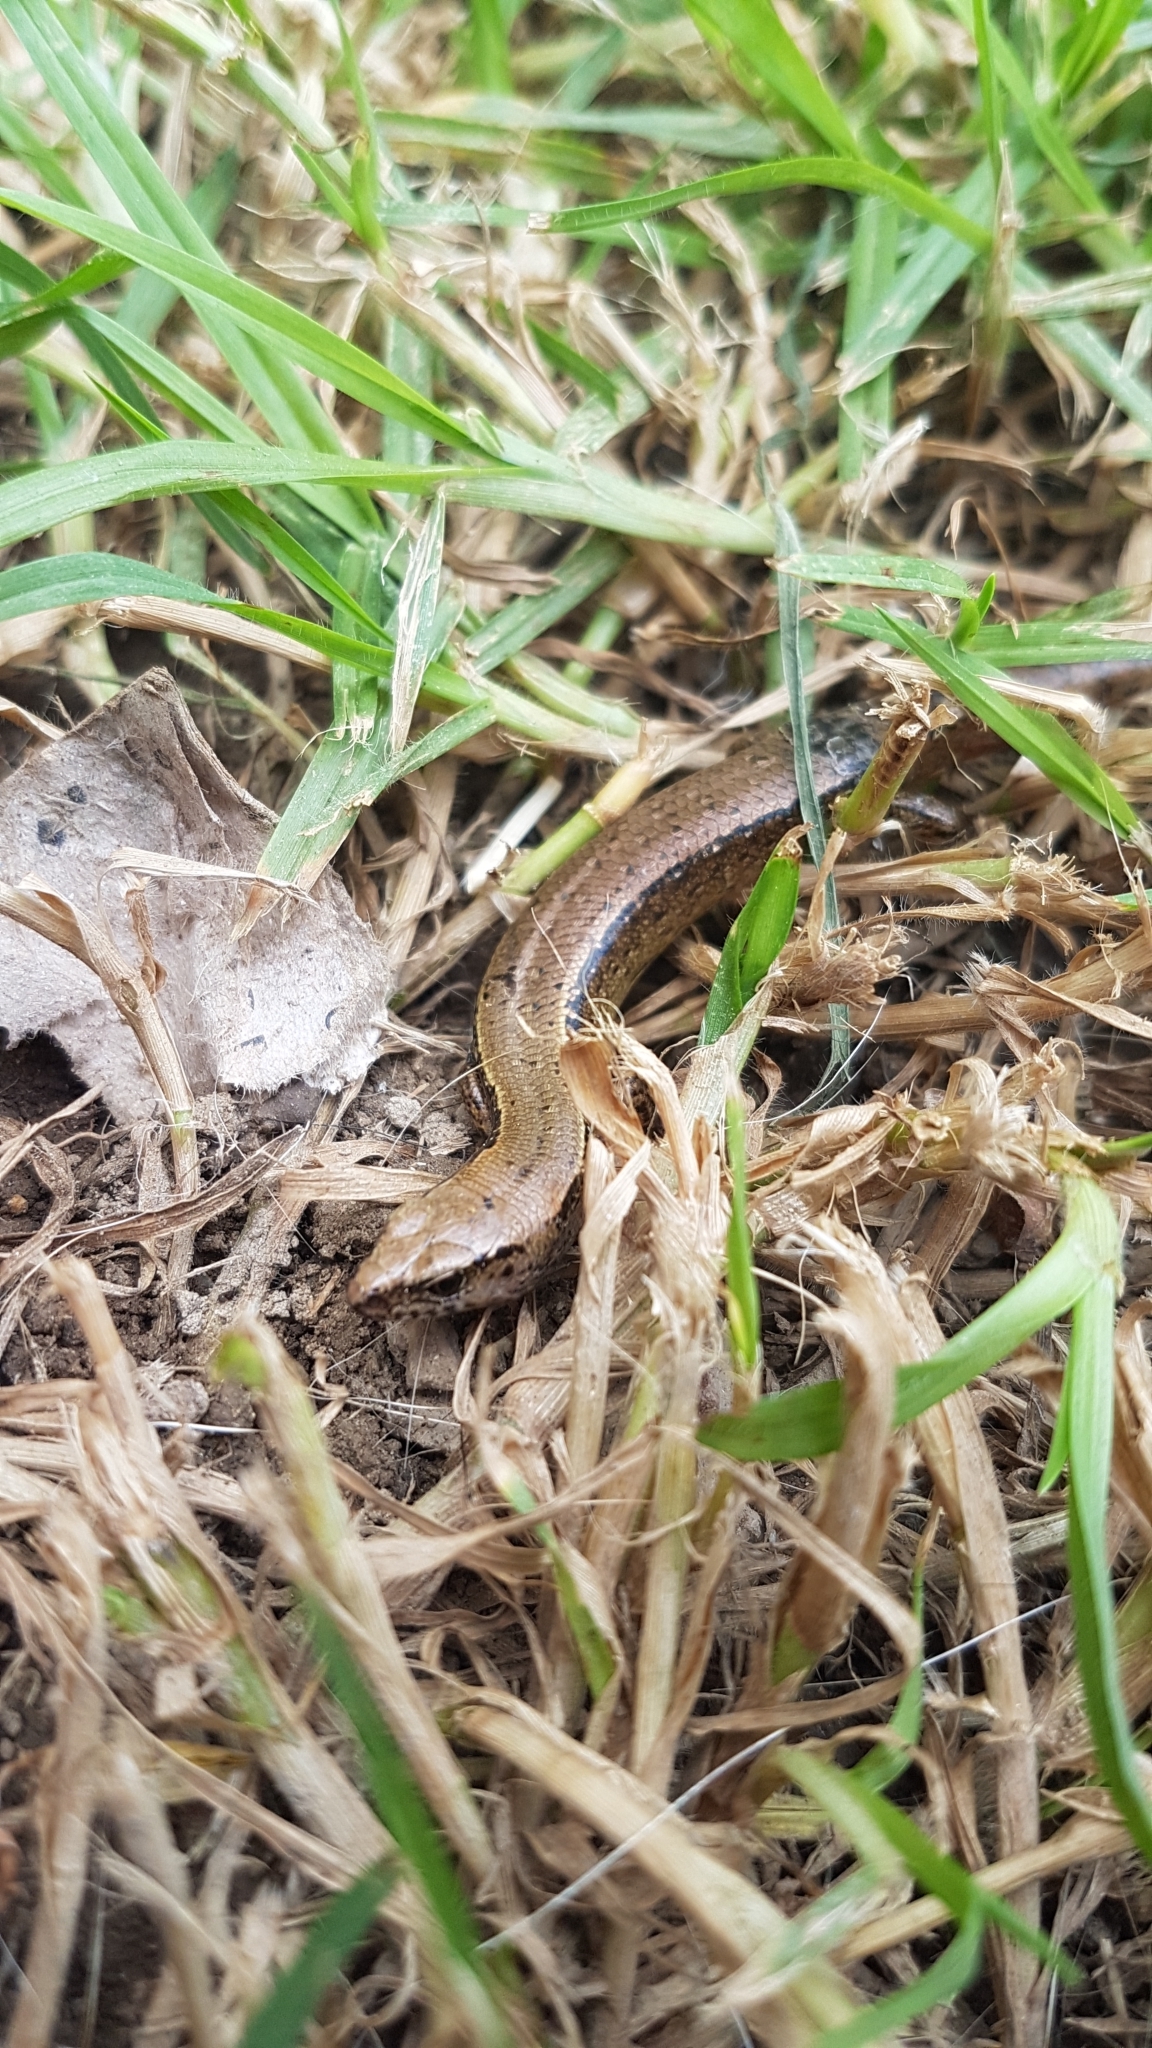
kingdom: Animalia
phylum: Chordata
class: Squamata
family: Scincidae
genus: Oligosoma
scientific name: Oligosoma aeneum
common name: Copper skink
